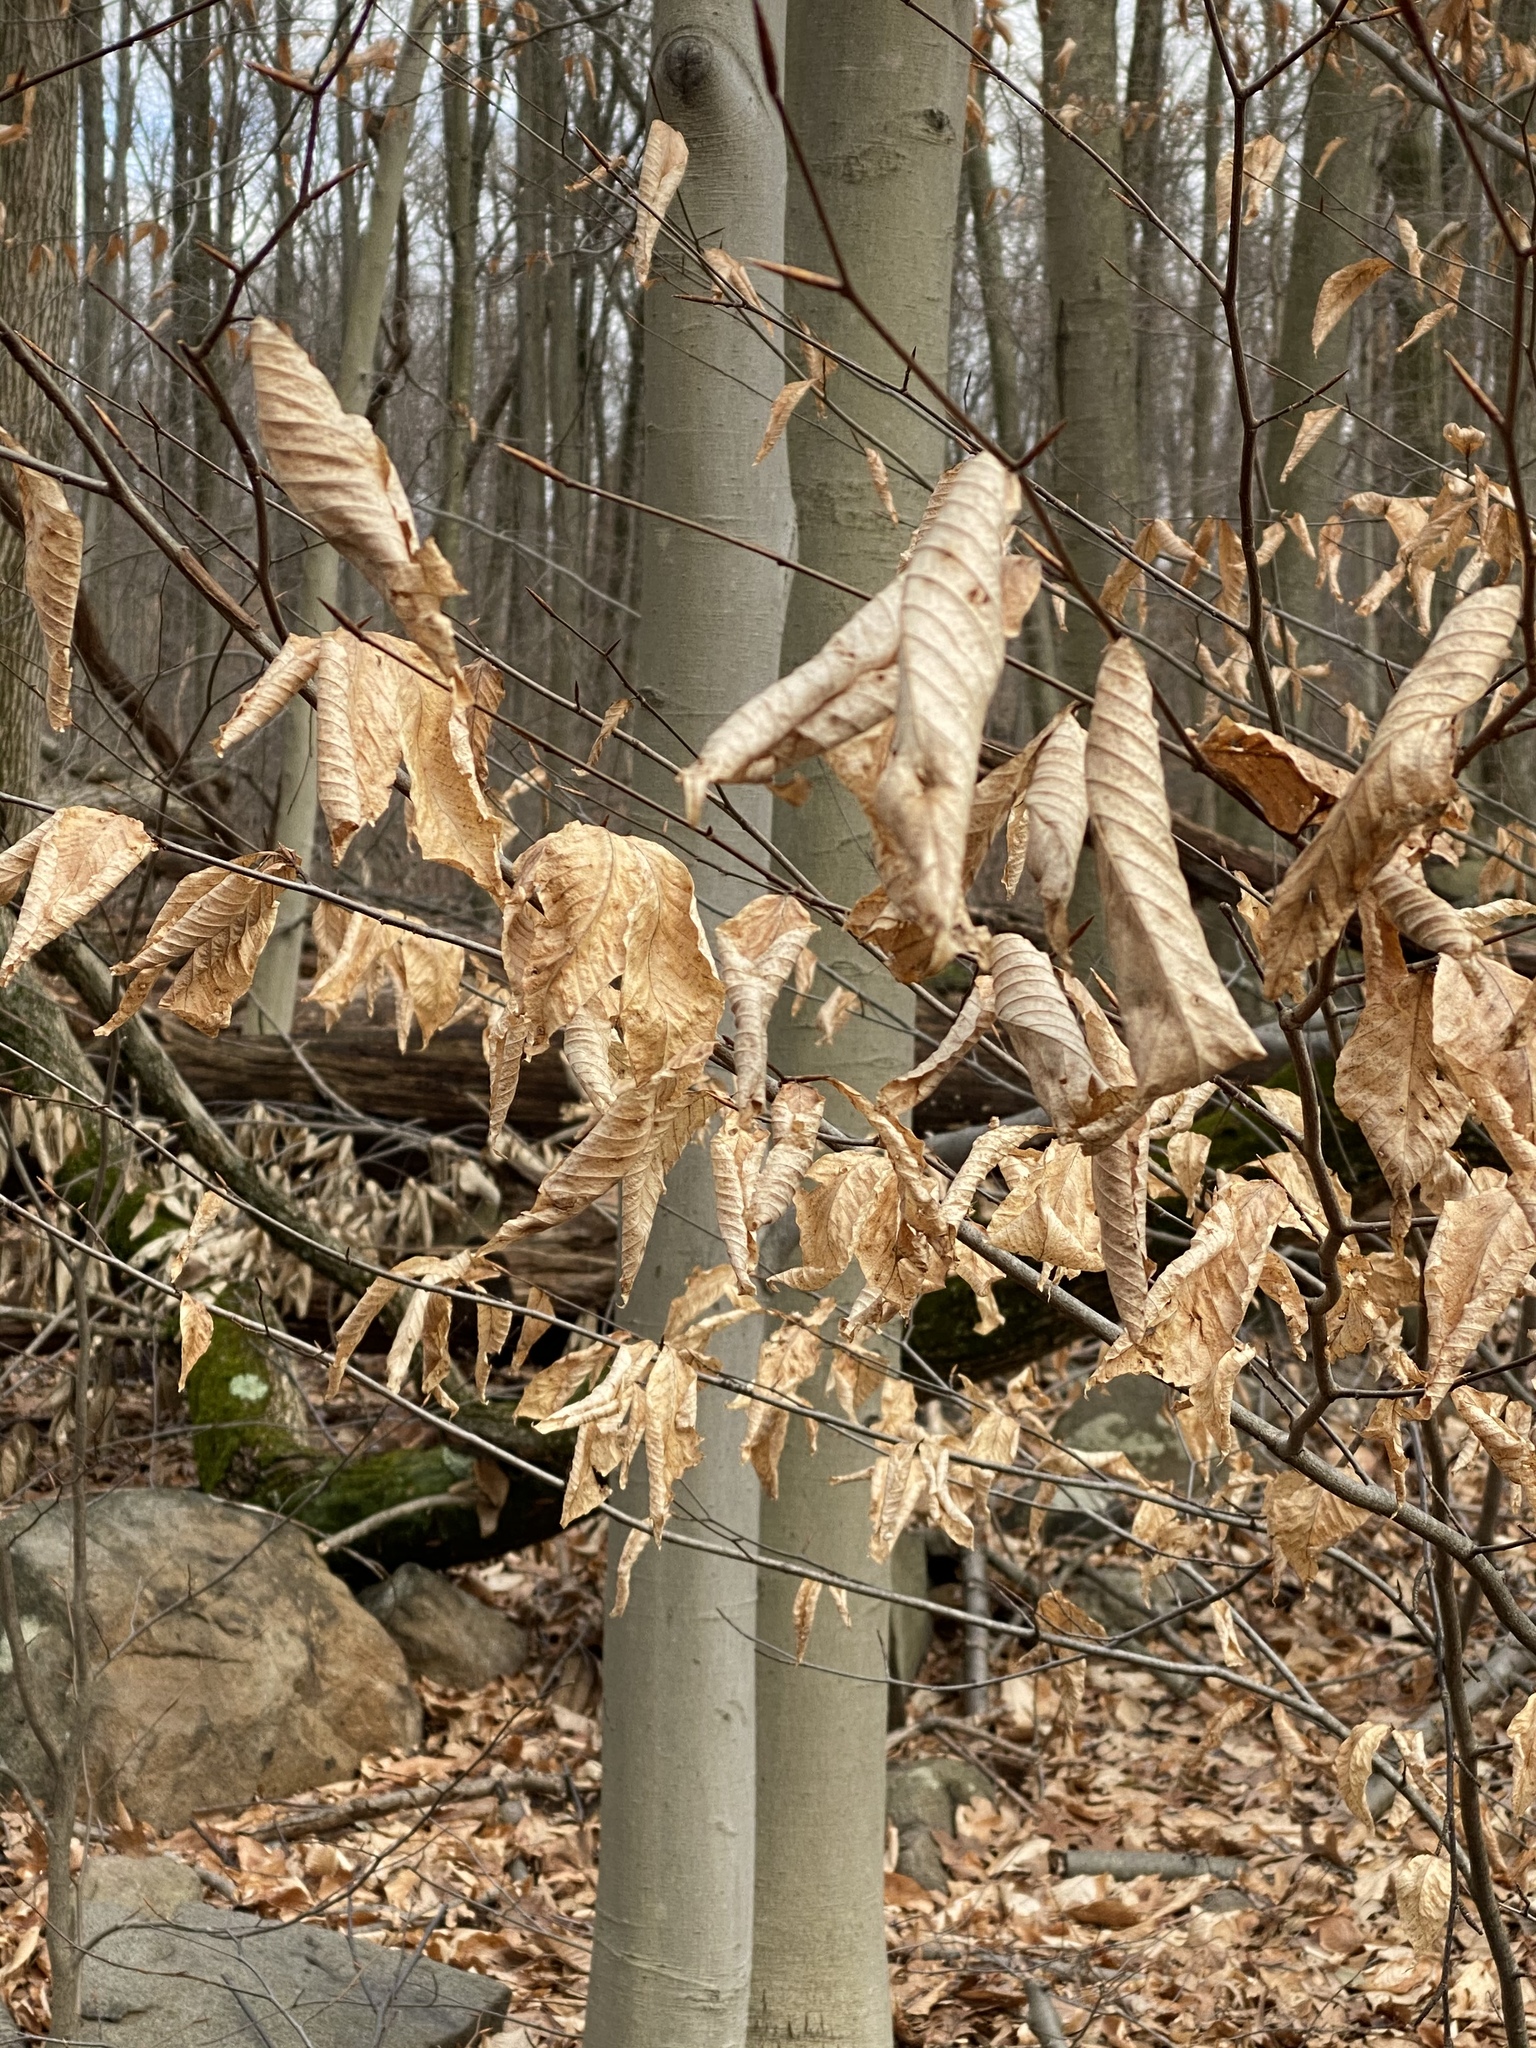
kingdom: Plantae
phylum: Tracheophyta
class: Magnoliopsida
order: Fagales
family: Fagaceae
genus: Fagus
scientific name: Fagus grandifolia
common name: American beech
